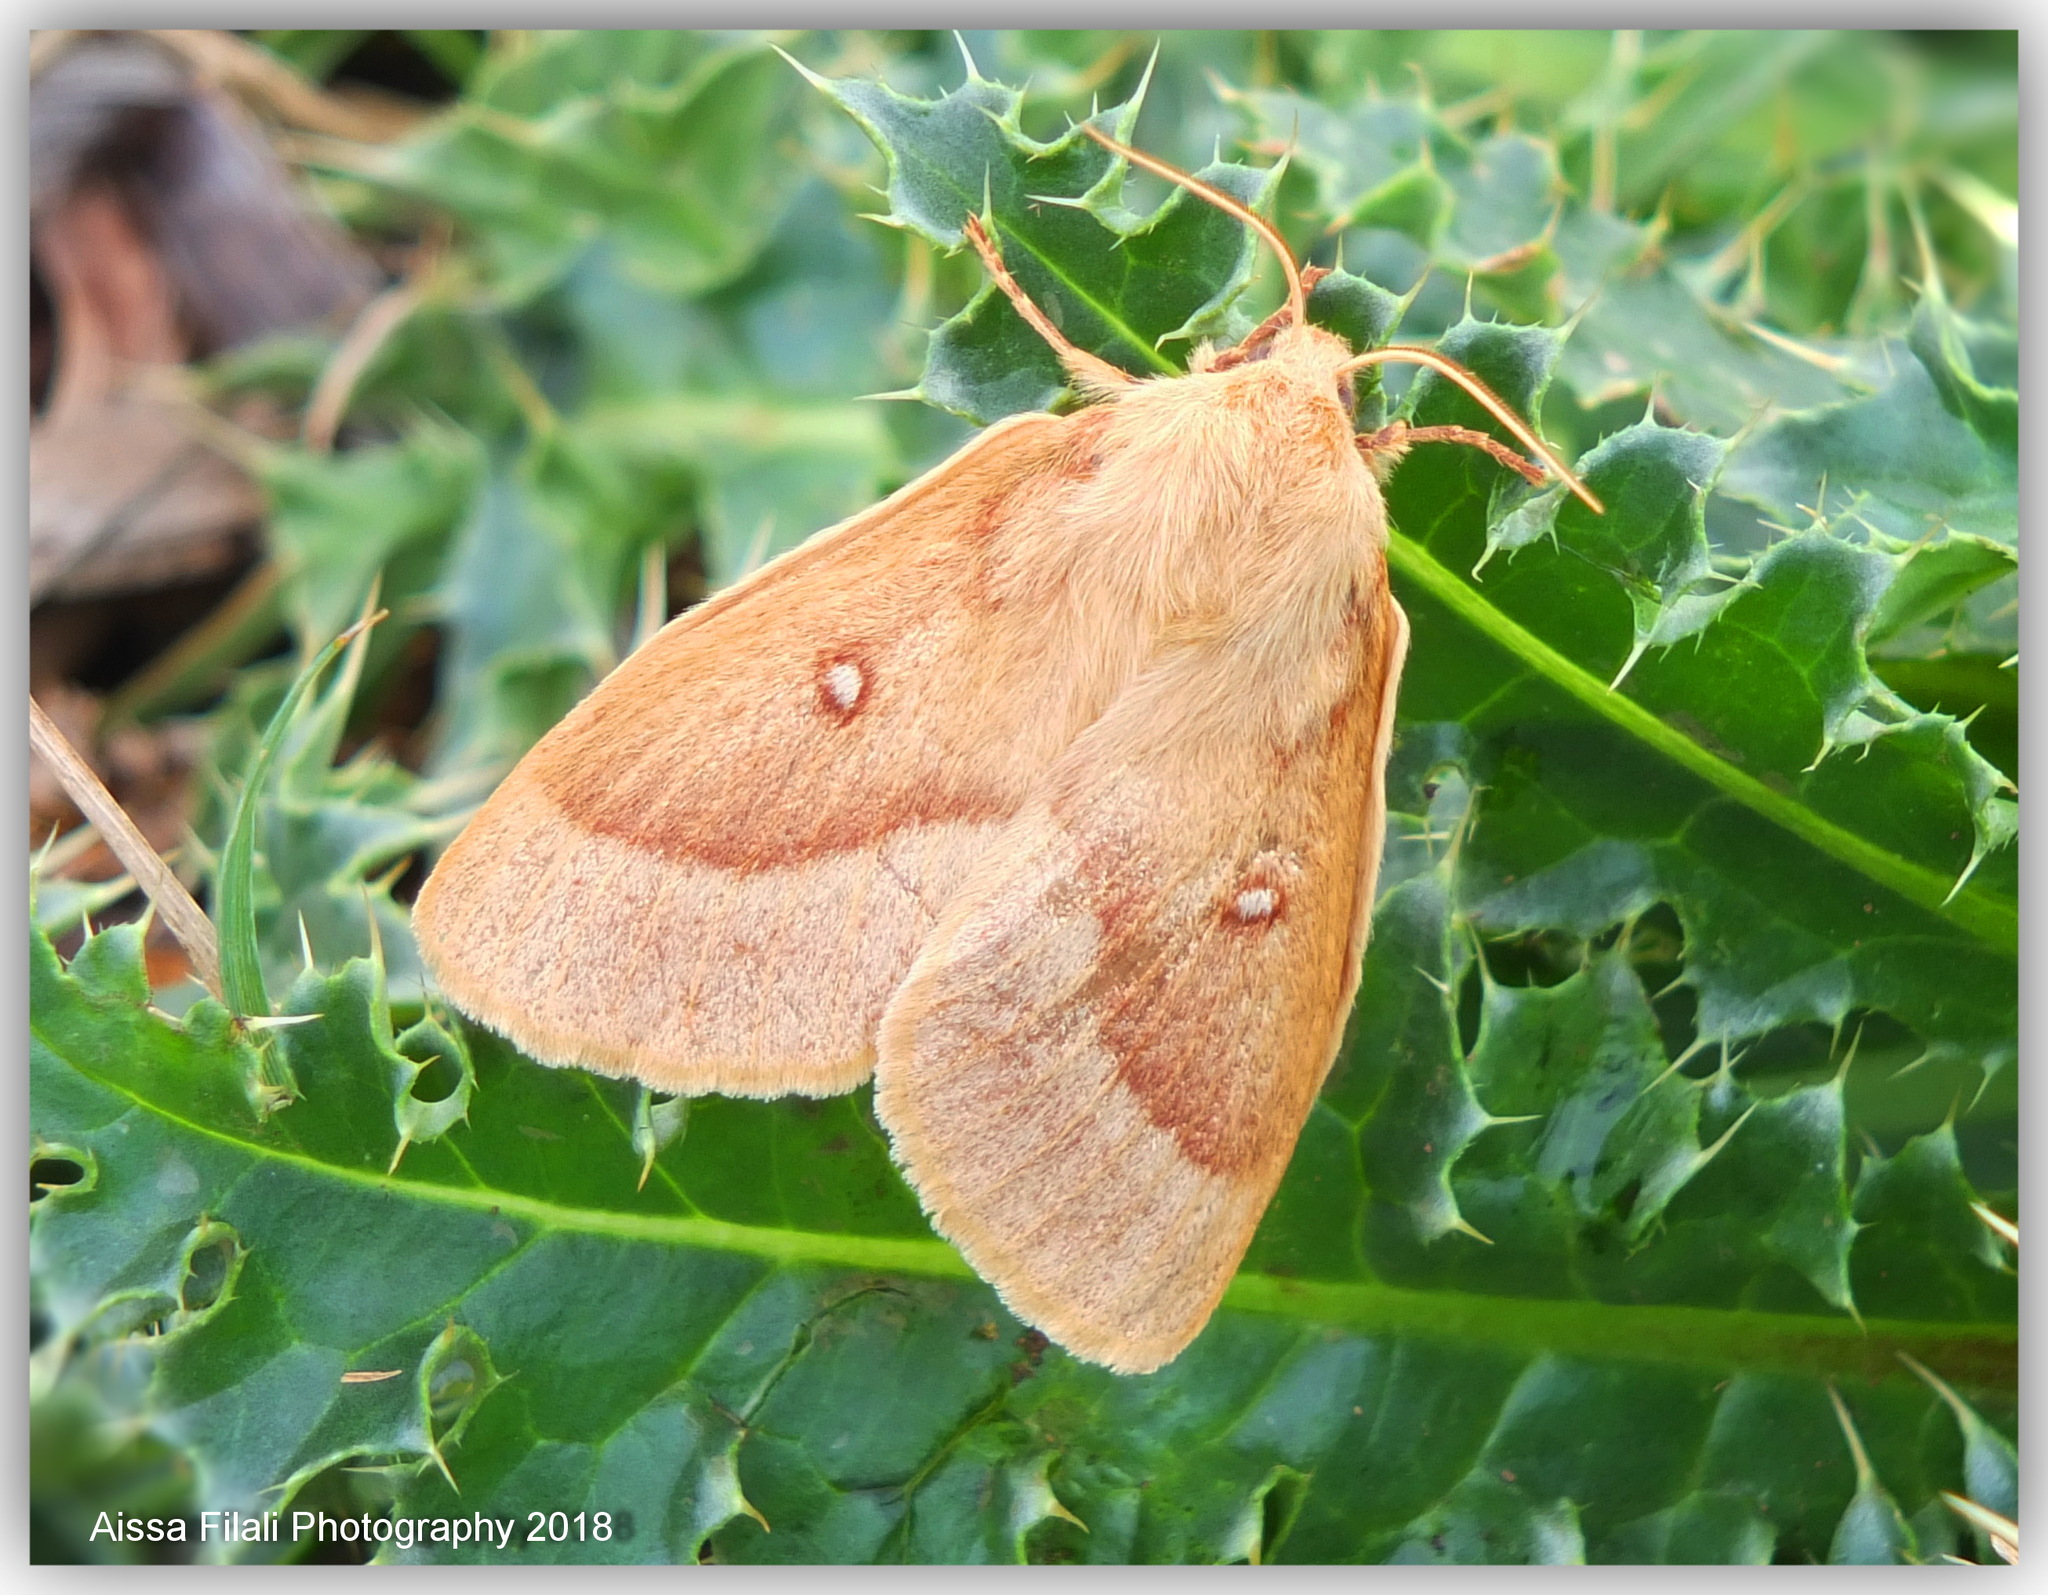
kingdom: Animalia
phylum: Arthropoda
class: Insecta
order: Lepidoptera
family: Lasiocampidae
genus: Lasiocampa
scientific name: Lasiocampa trifolii
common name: Grass eggar
